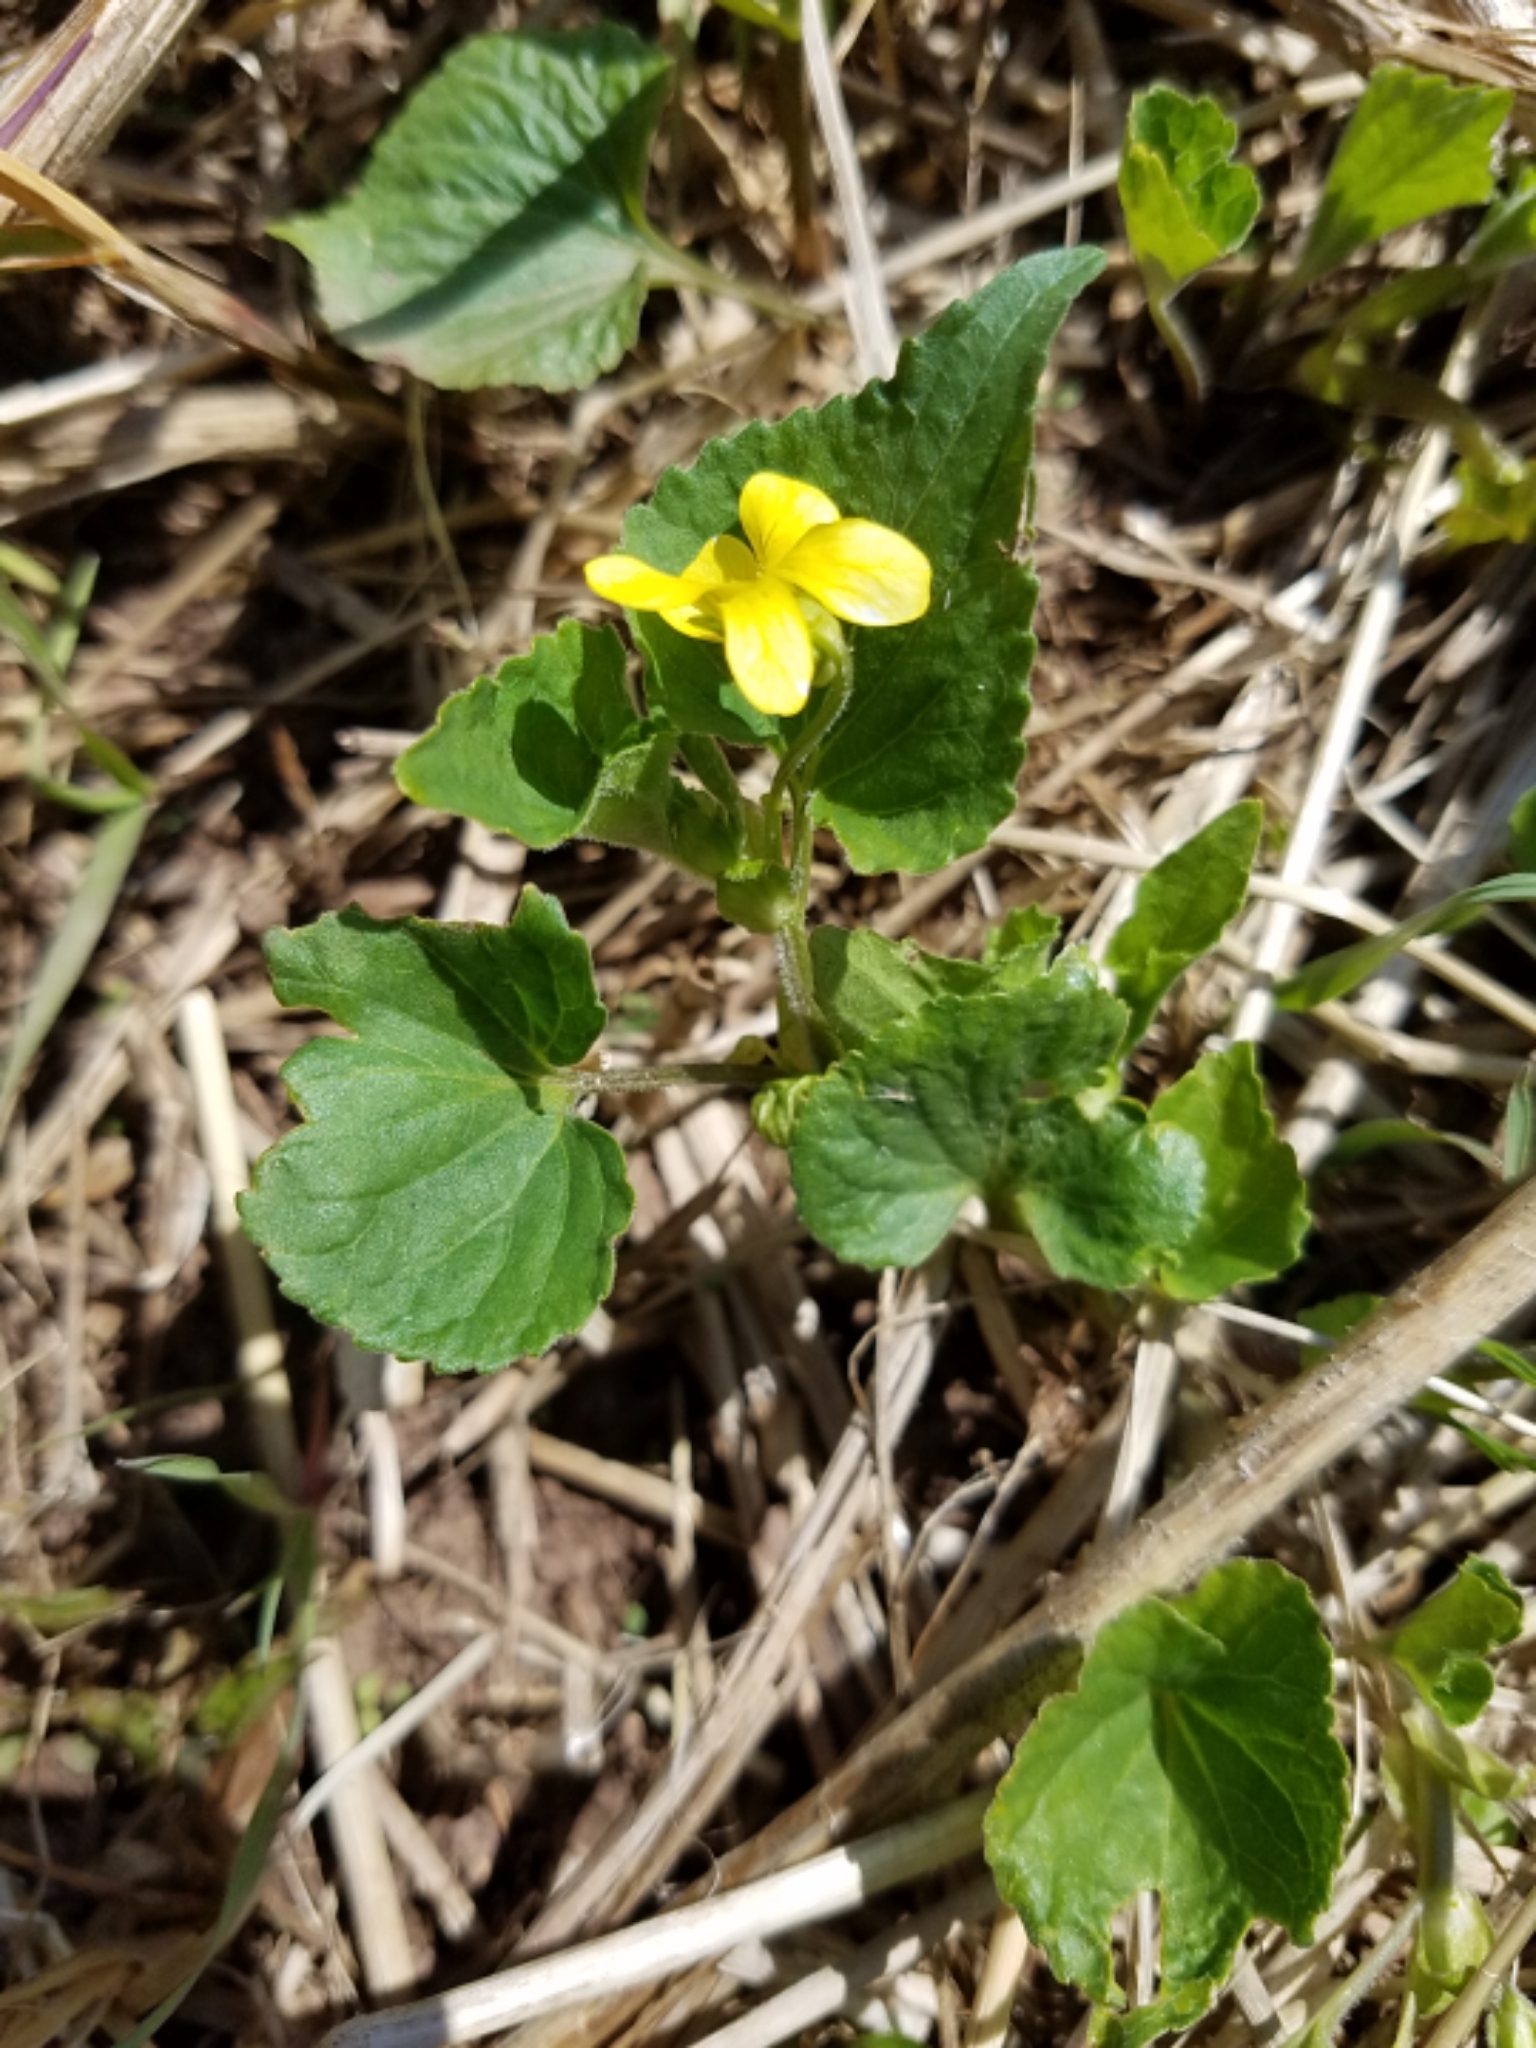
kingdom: Plantae
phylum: Tracheophyta
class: Magnoliopsida
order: Malpighiales
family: Violaceae
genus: Viola
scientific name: Viola eriocarpa
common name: Smooth yellow violet
